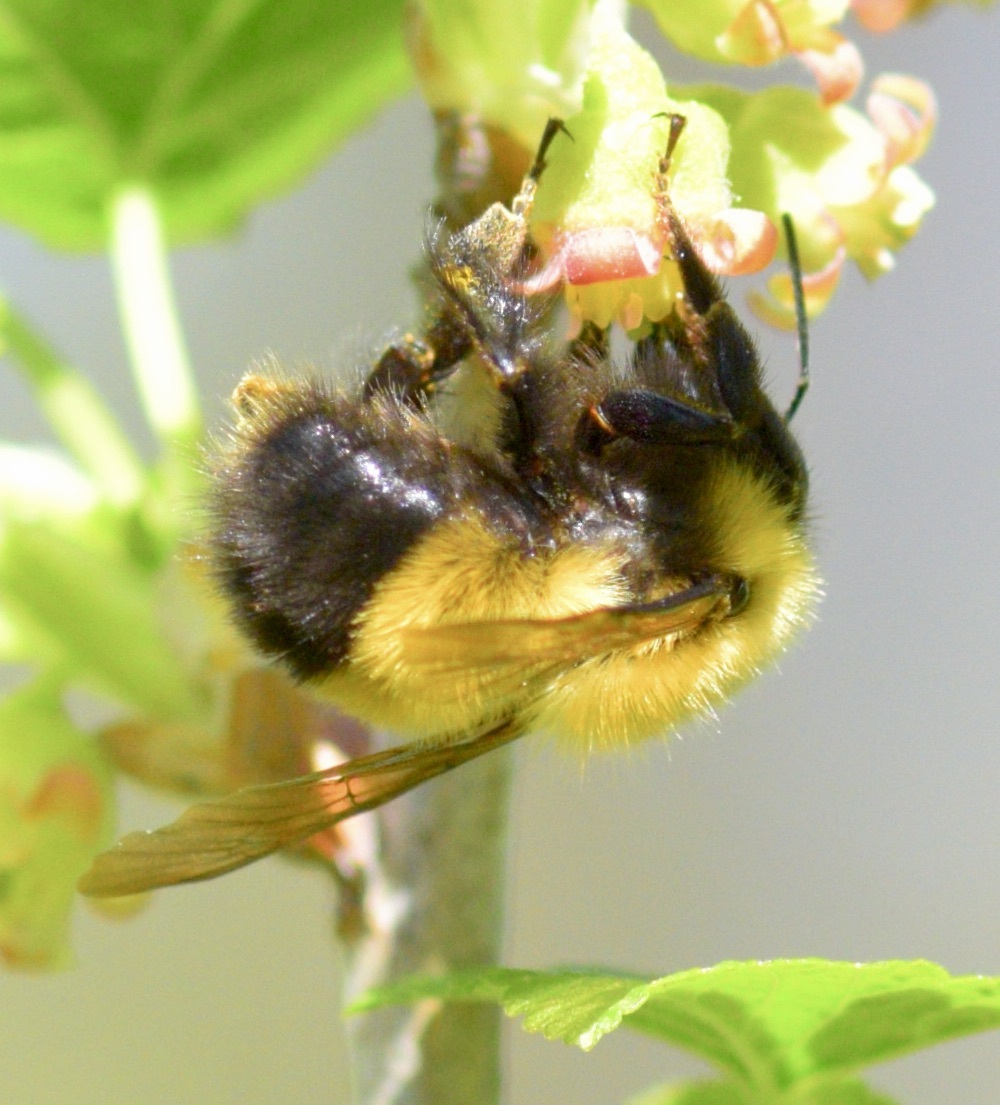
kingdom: Animalia
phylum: Arthropoda
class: Insecta
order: Hymenoptera
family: Apidae
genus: Bombus
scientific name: Bombus perplexus
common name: Confusing bumble bee
